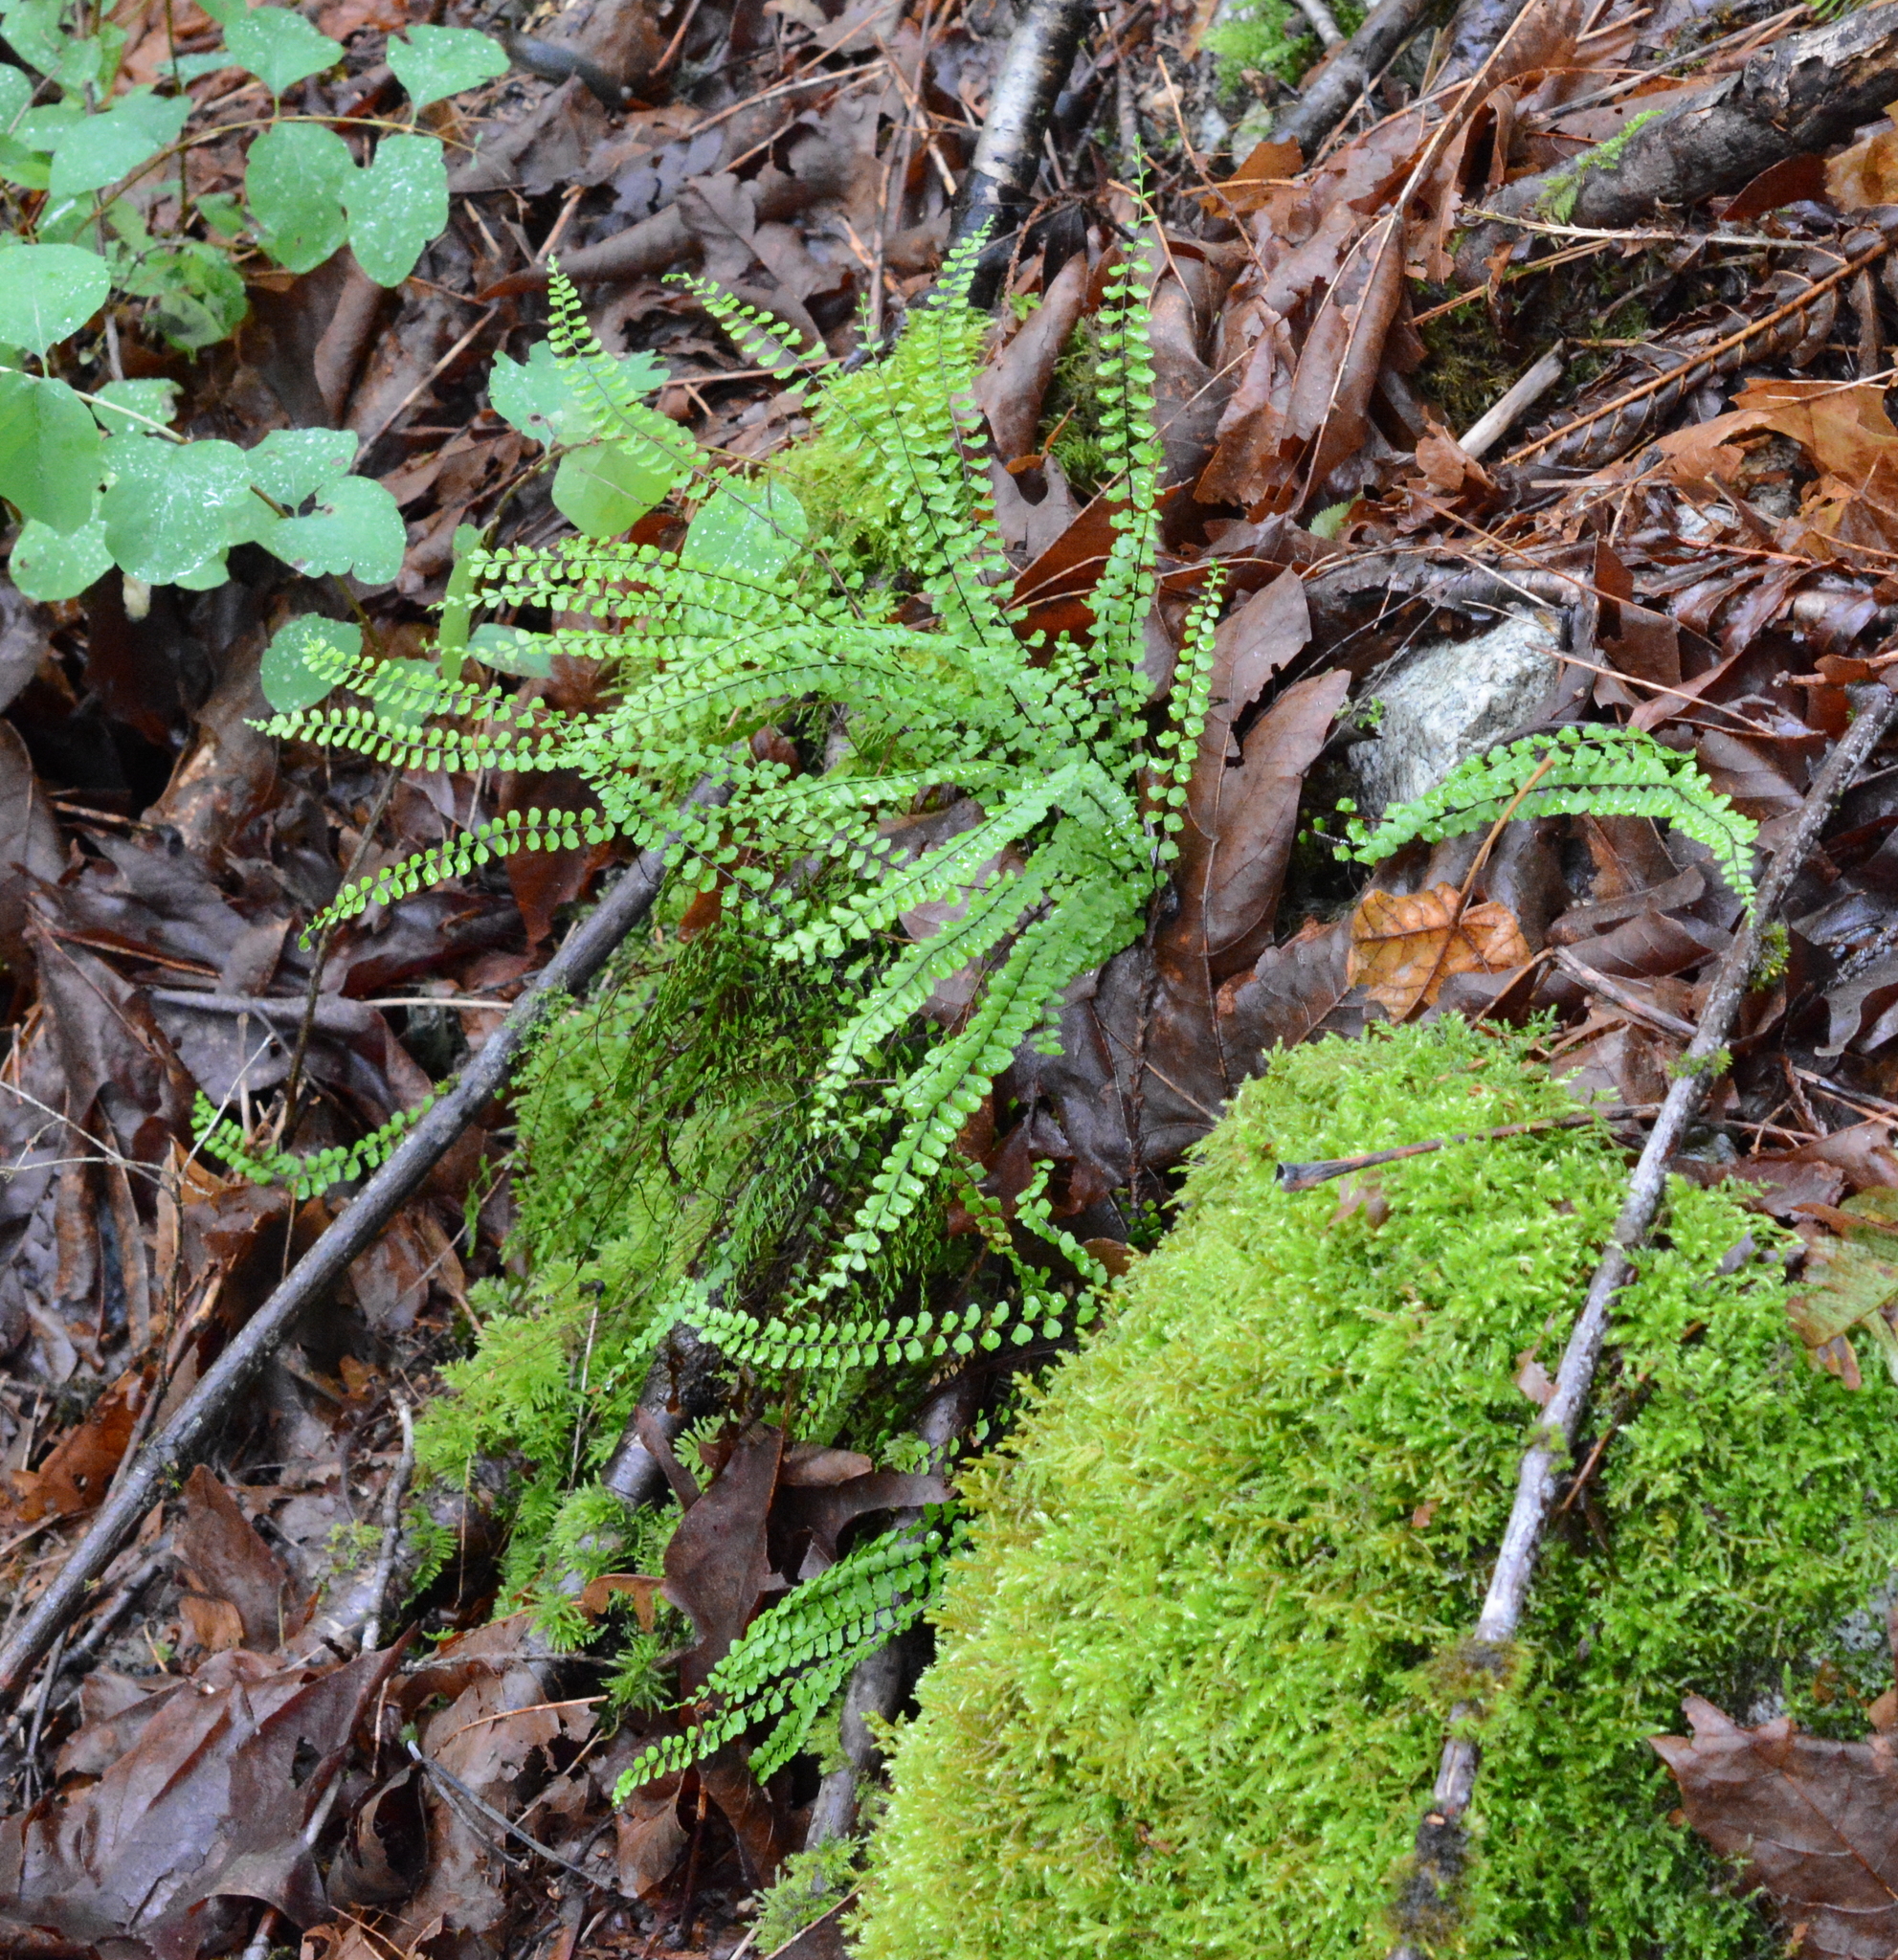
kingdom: Plantae
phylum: Tracheophyta
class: Polypodiopsida
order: Polypodiales
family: Aspleniaceae
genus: Asplenium
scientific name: Asplenium trichomanes
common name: Maidenhair spleenwort
